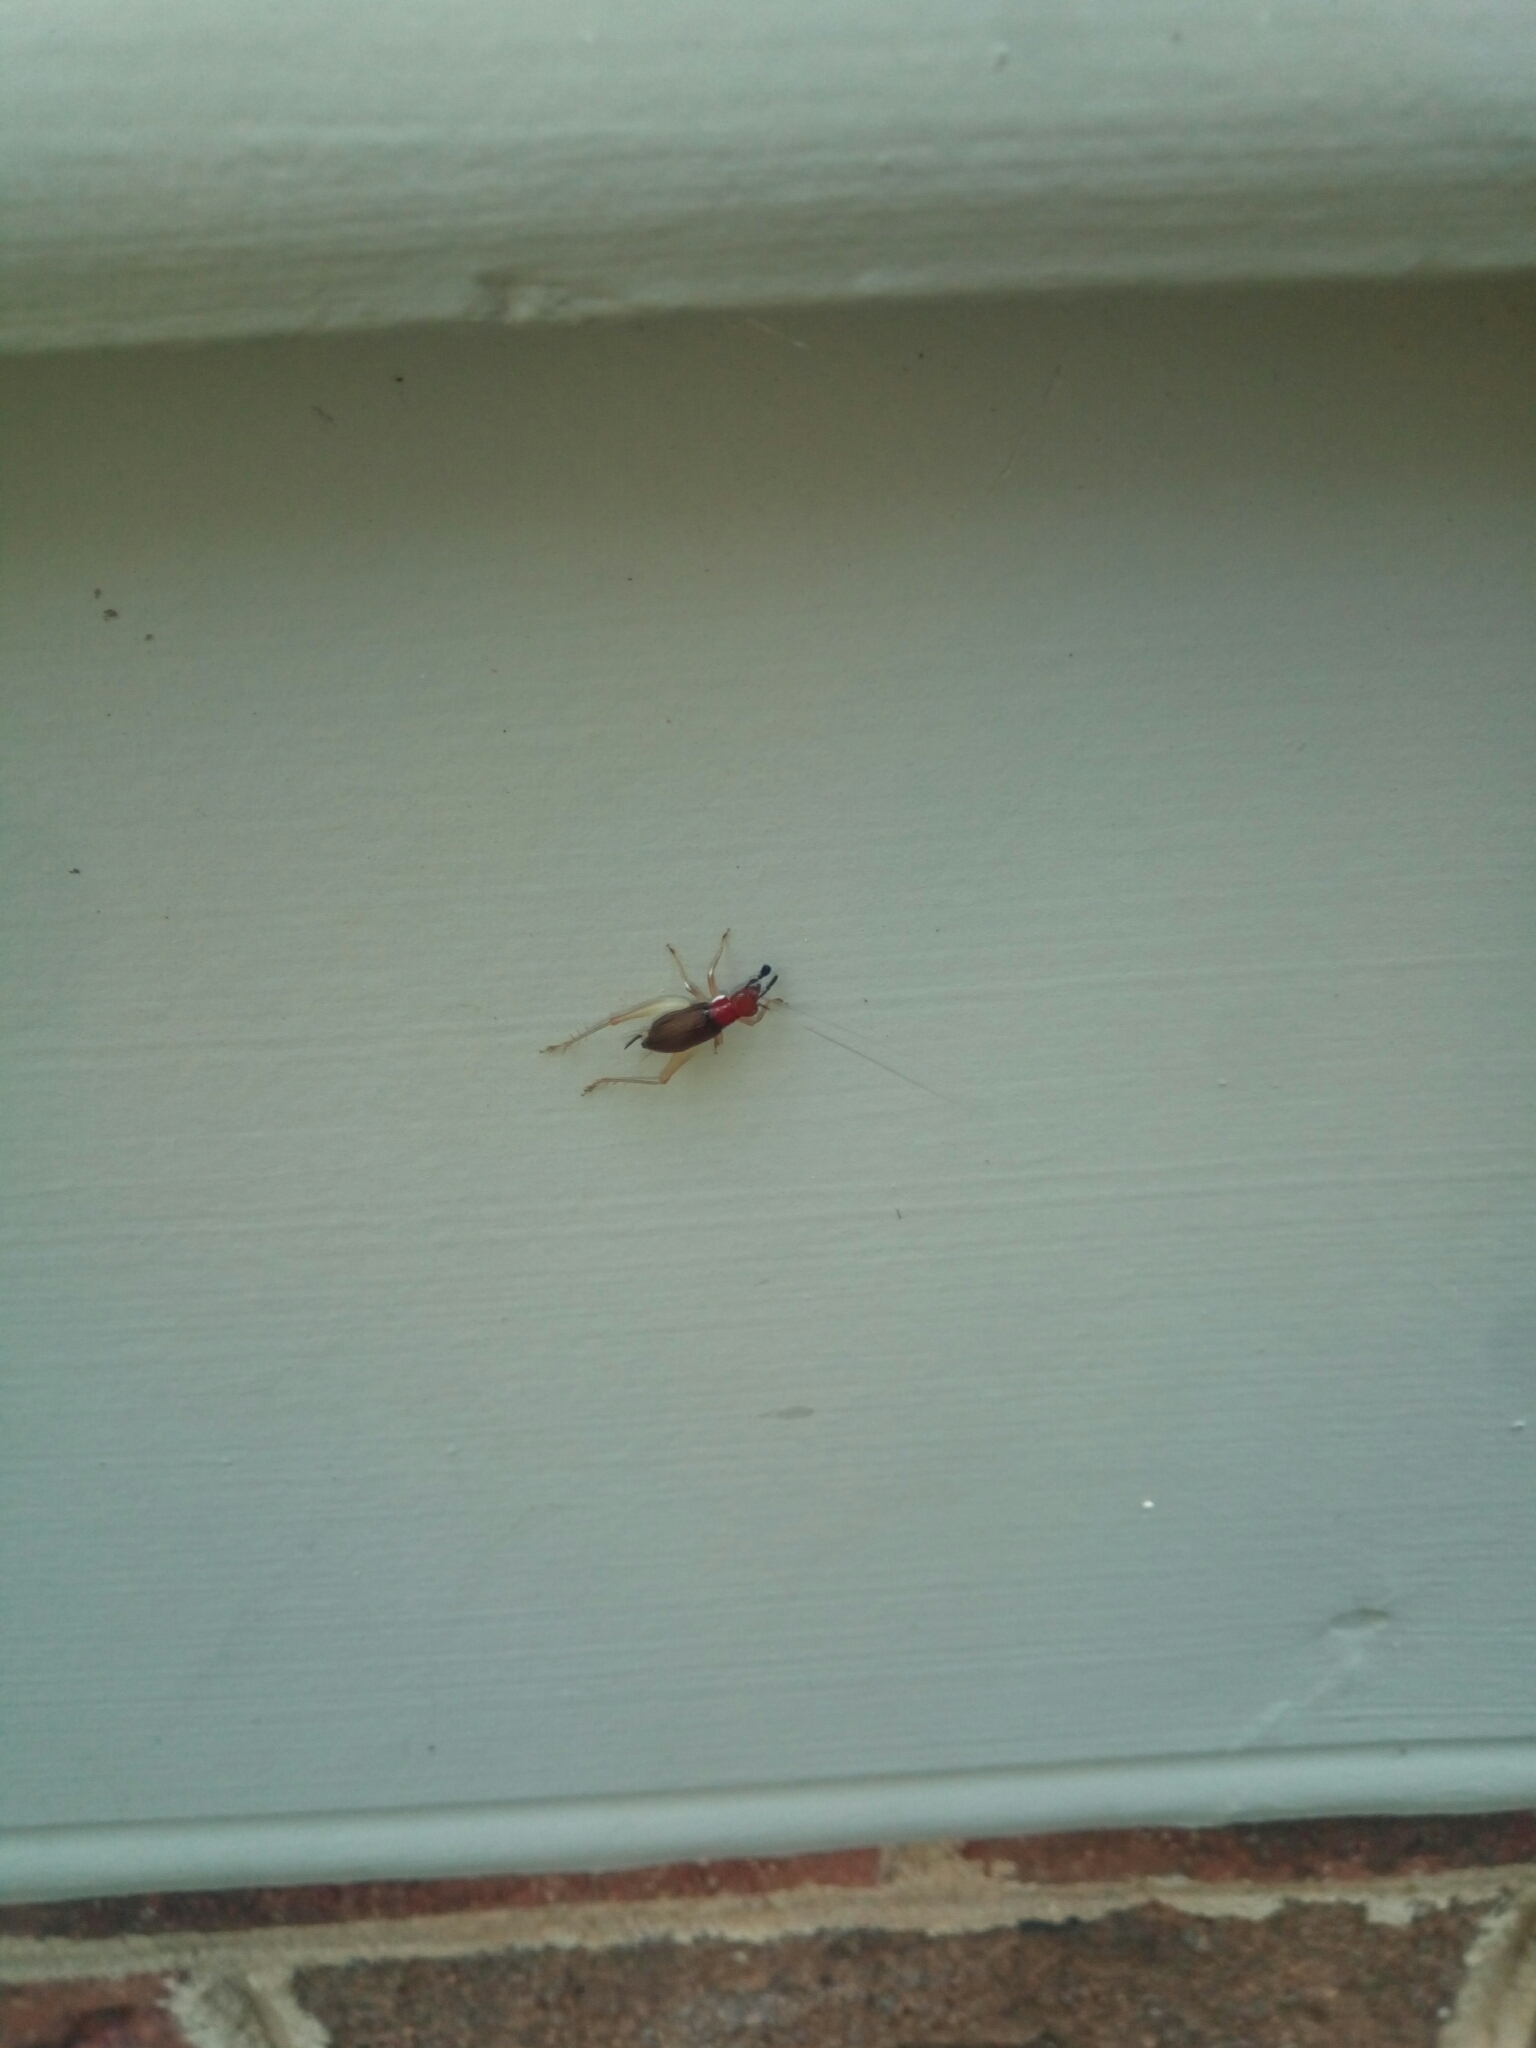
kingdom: Animalia
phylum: Arthropoda
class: Insecta
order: Orthoptera
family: Trigonidiidae
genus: Phyllopalpus
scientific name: Phyllopalpus pulchellus
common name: Handsome trig
